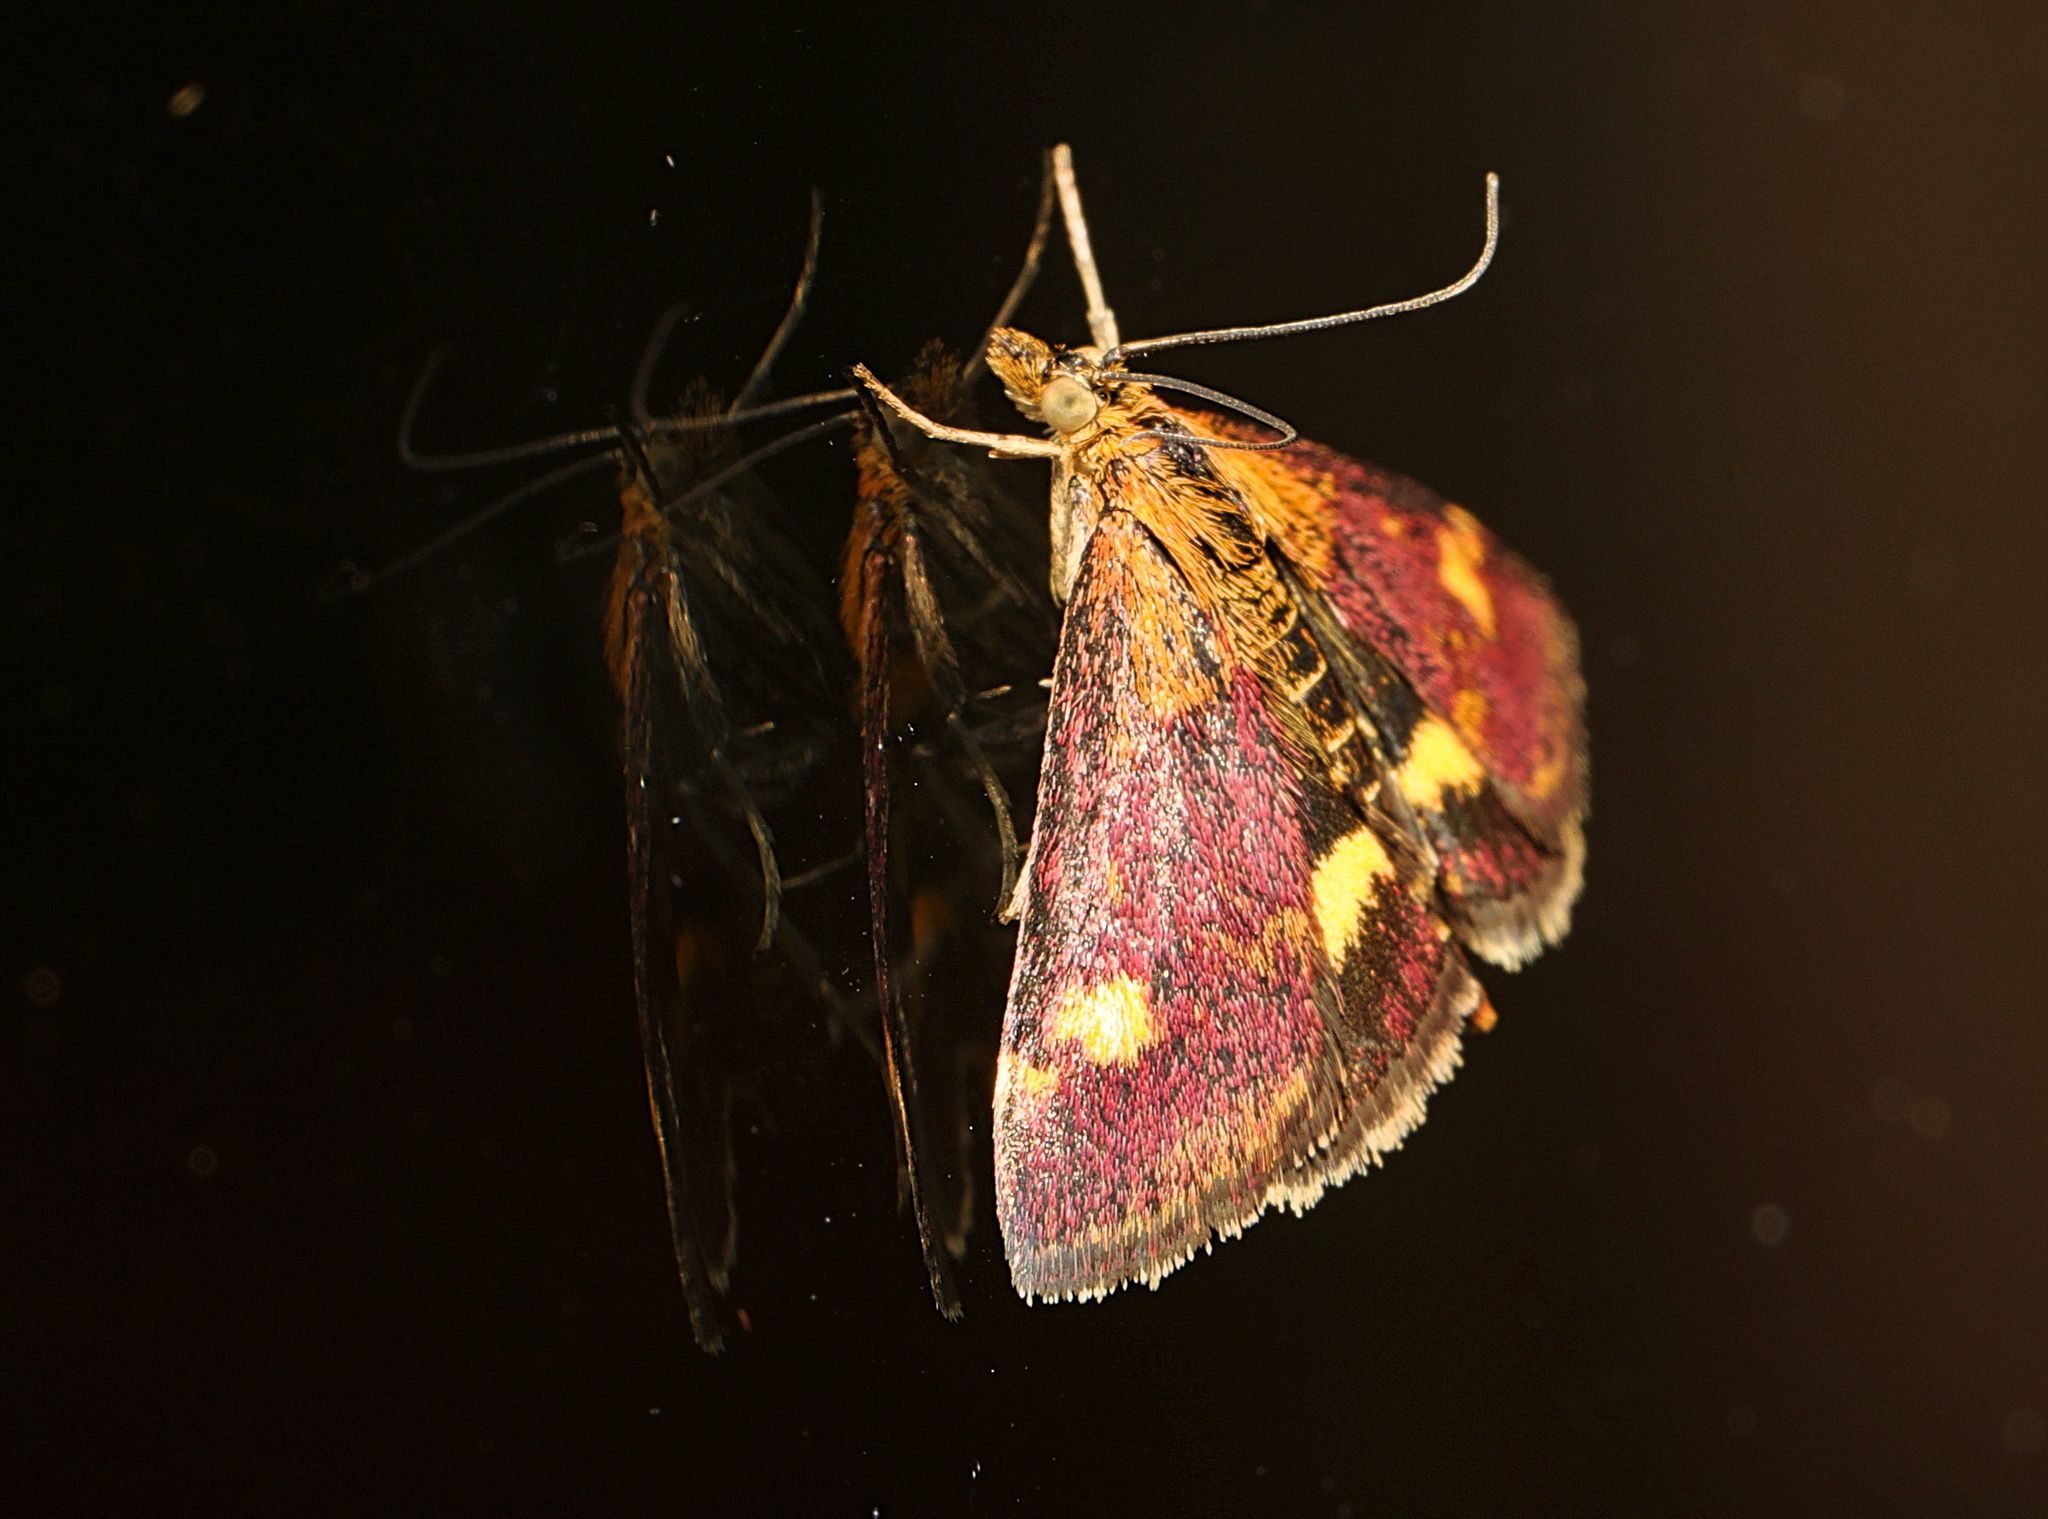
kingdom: Animalia
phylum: Arthropoda
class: Insecta
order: Lepidoptera
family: Crambidae
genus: Pyrausta
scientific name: Pyrausta aurata
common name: Small purple & gold
